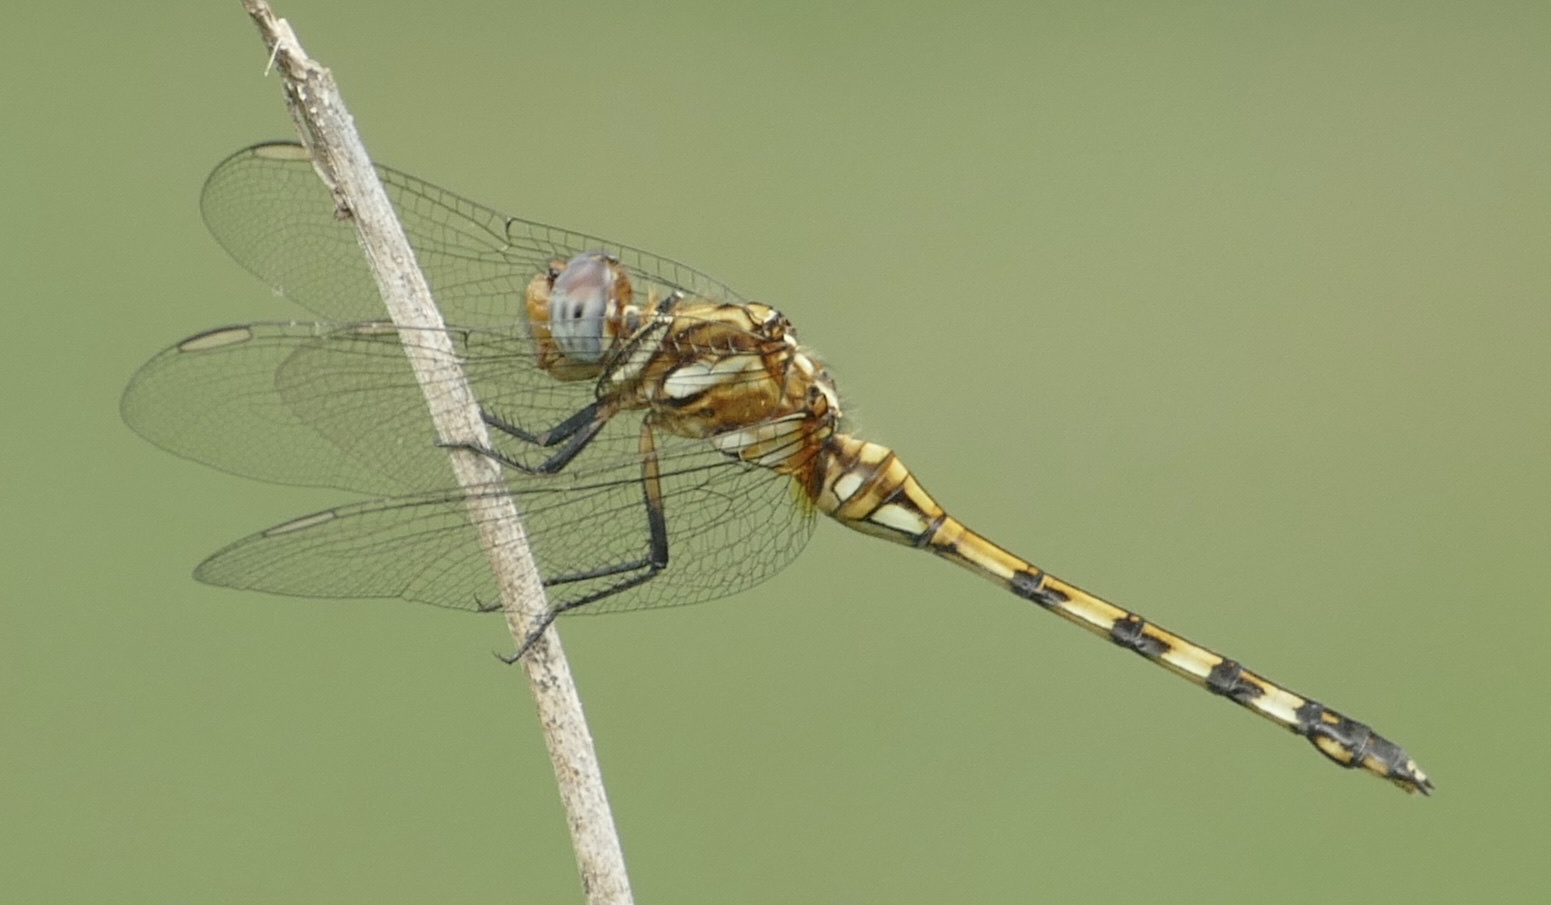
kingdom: Animalia
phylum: Arthropoda
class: Insecta
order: Odonata
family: Libellulidae
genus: Orthetrum
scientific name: Orthetrum brachiale
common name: Banded skimmer
